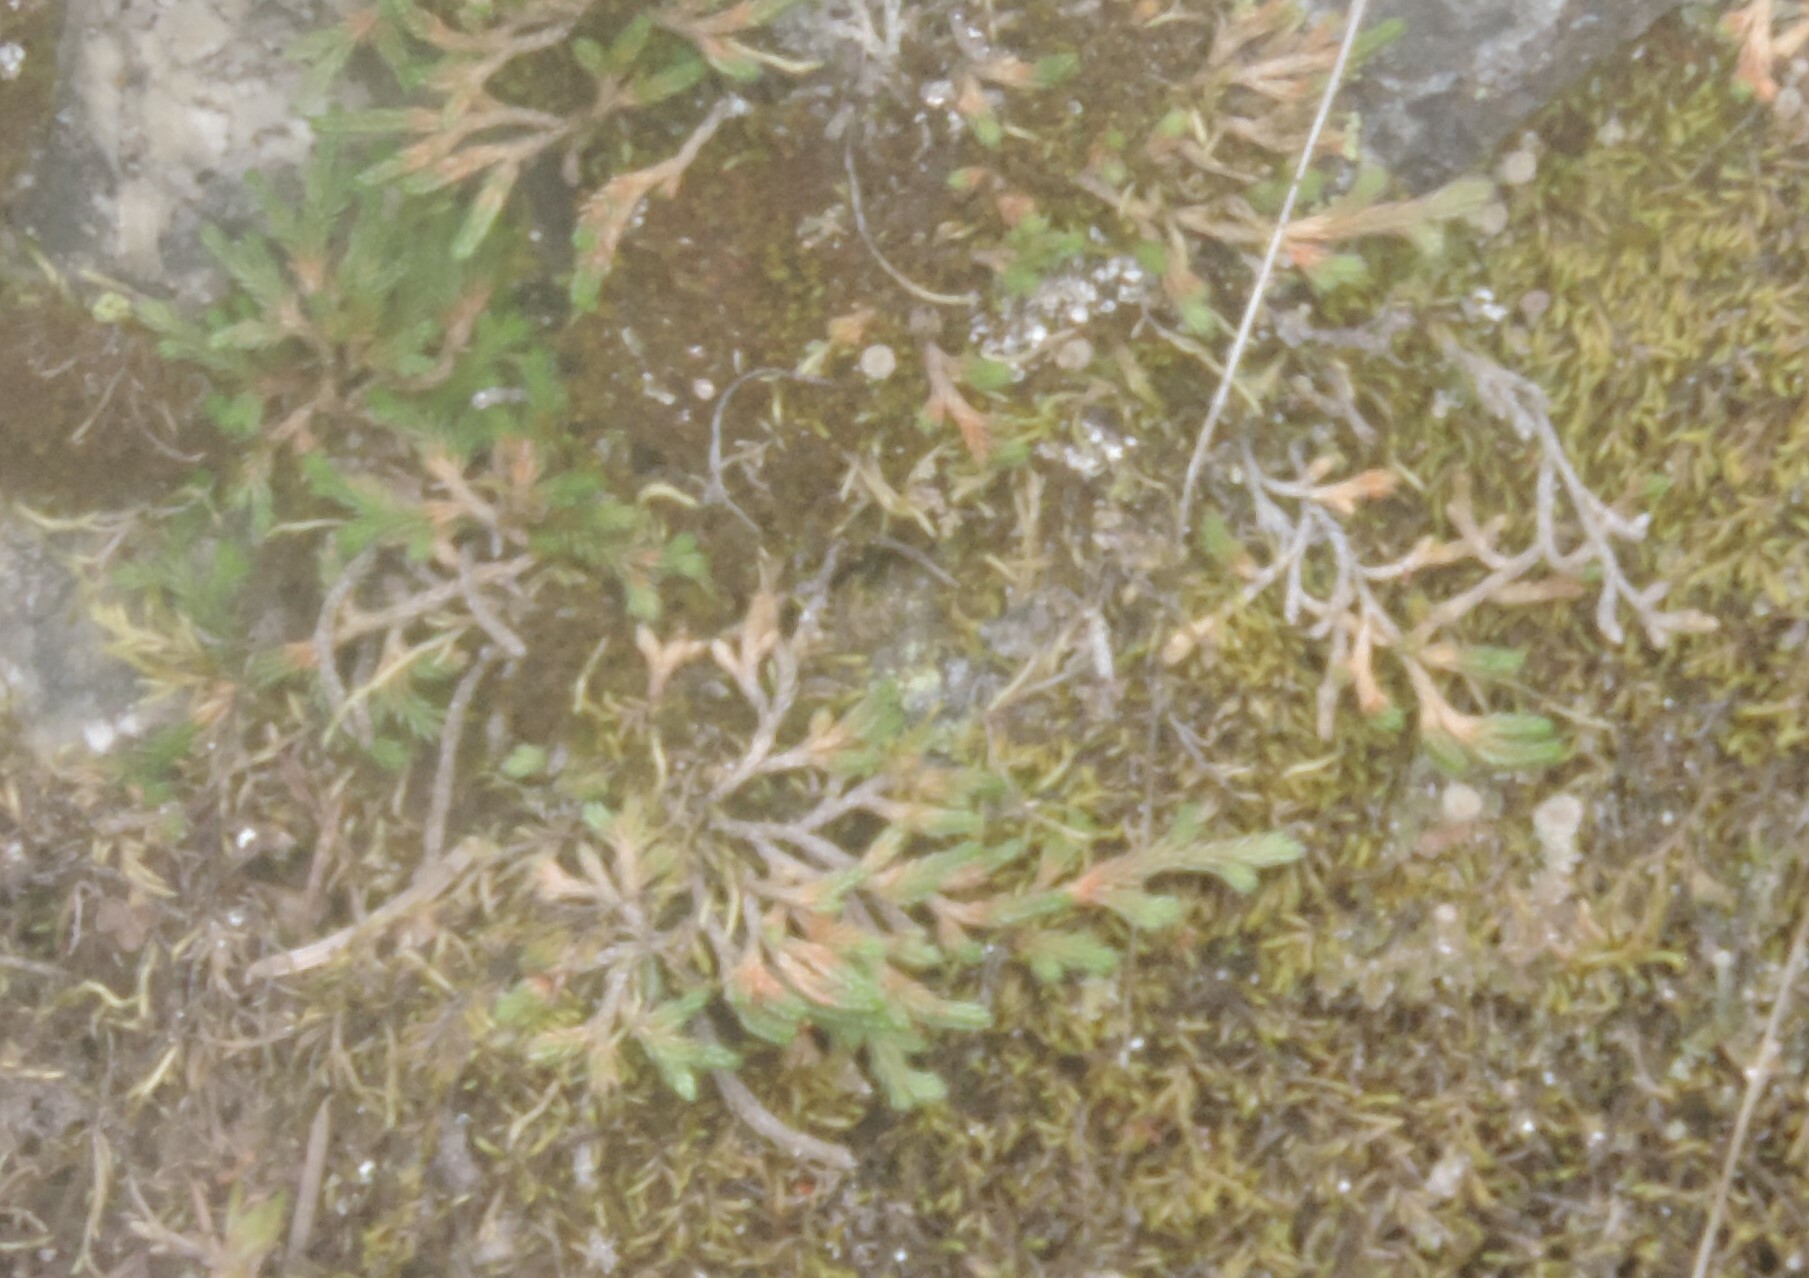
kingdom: Plantae
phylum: Tracheophyta
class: Lycopodiopsida
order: Selaginellales
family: Selaginellaceae
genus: Selaginella
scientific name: Selaginella wallacei
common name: Wallace's selaginella
